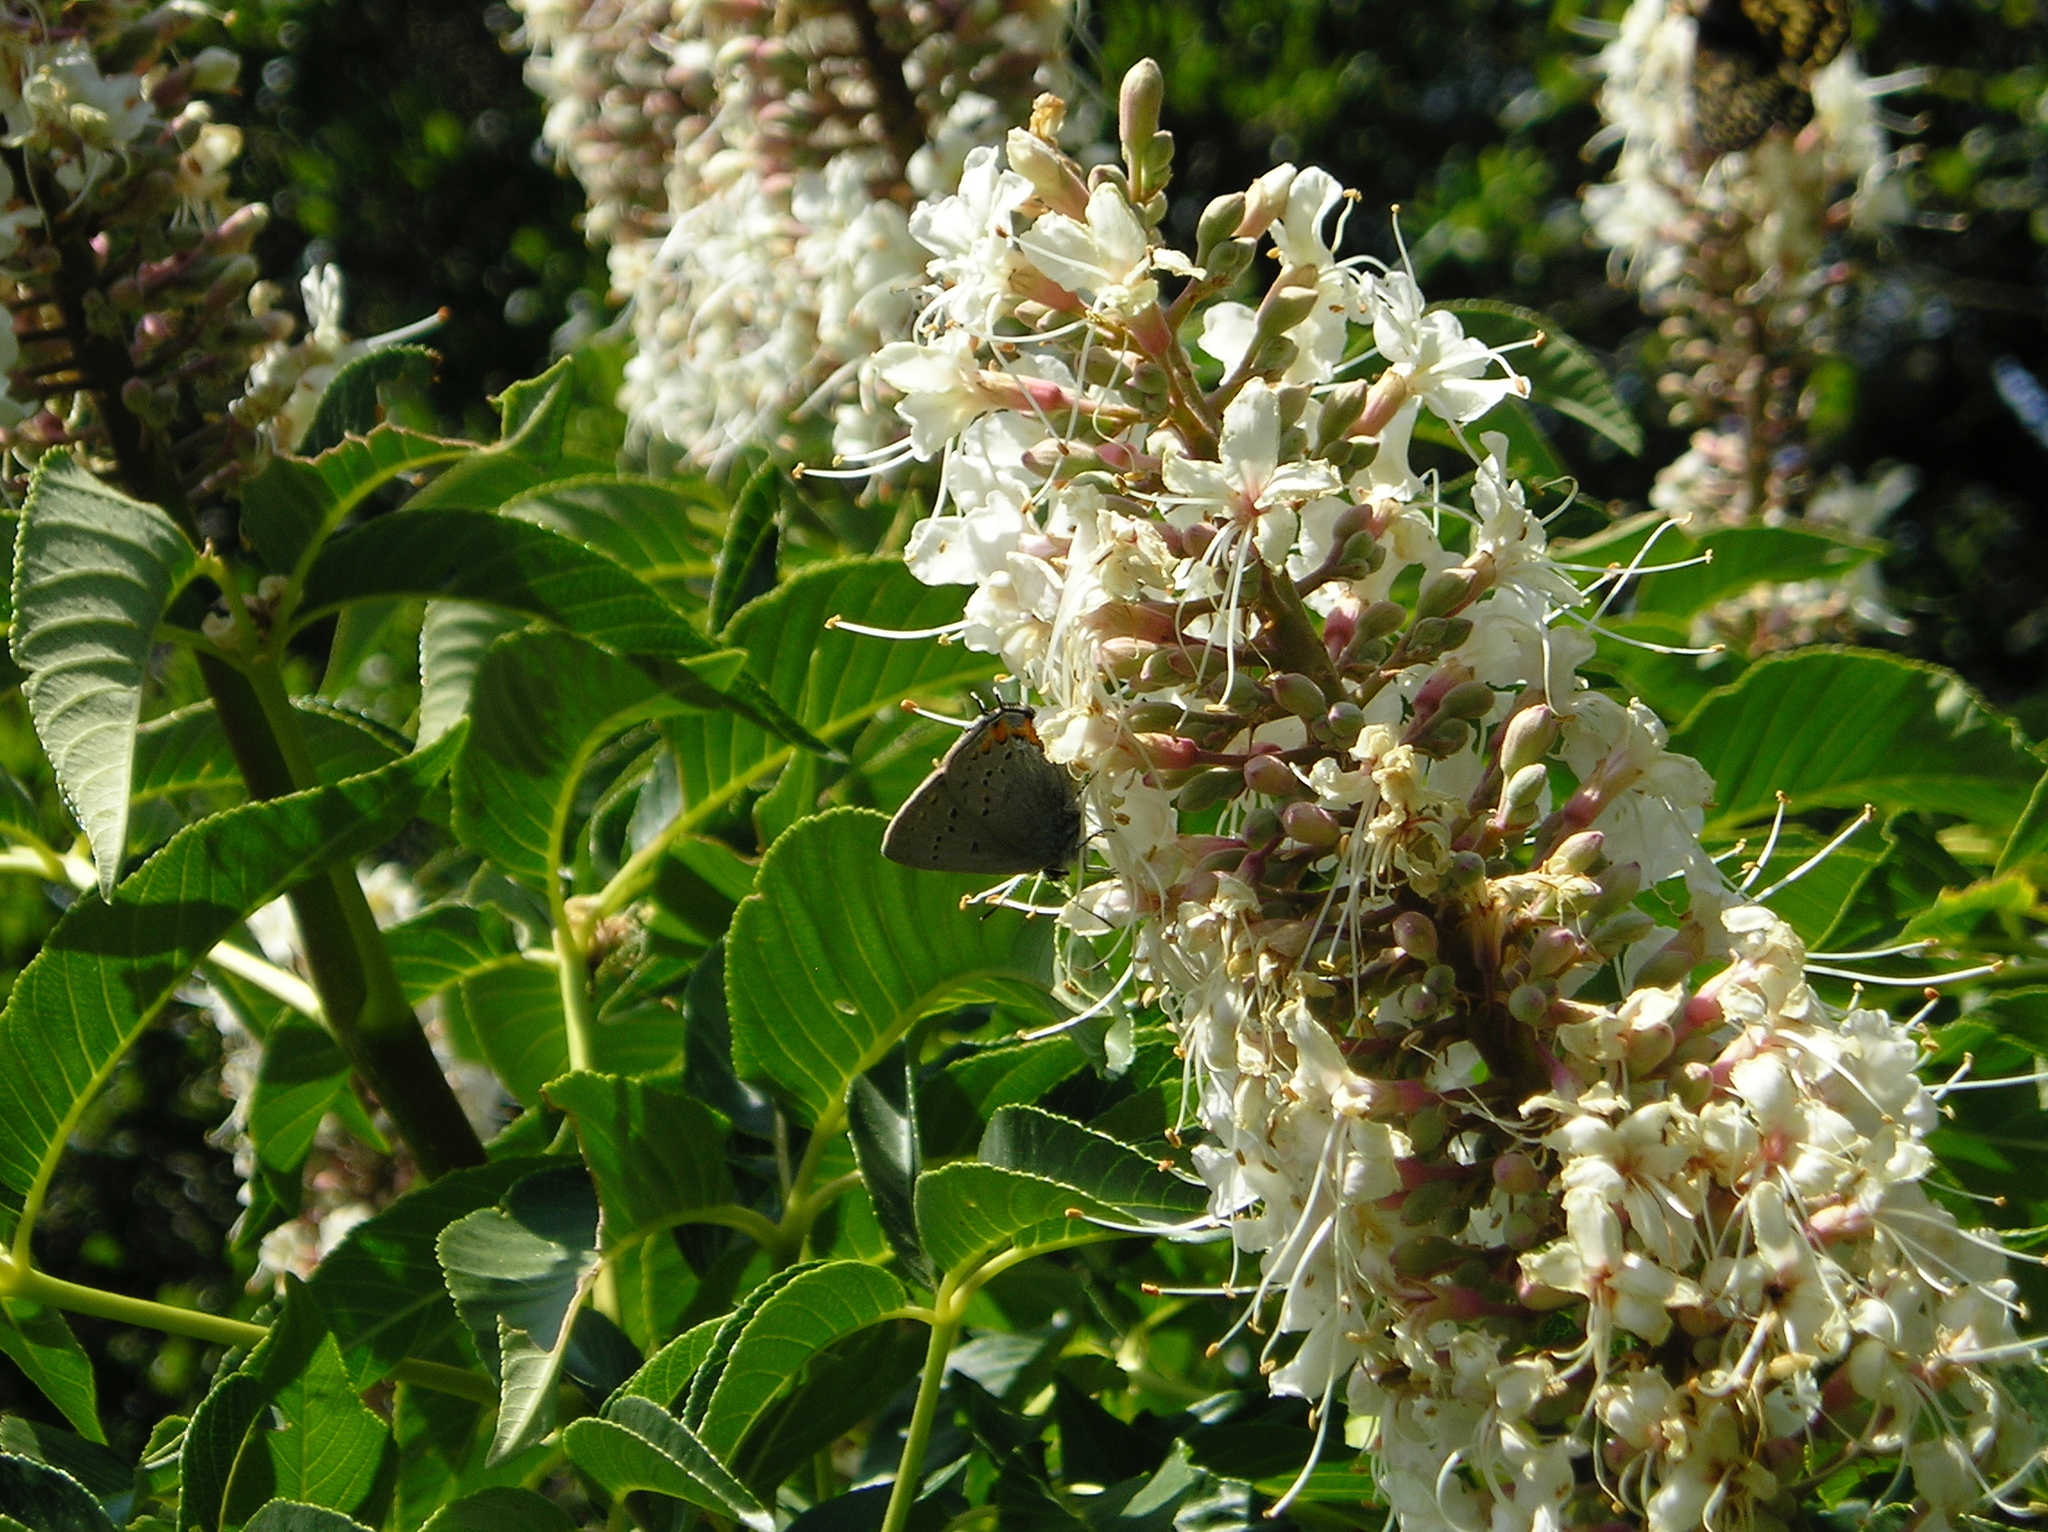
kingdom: Animalia
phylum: Arthropoda
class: Insecta
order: Lepidoptera
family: Lycaenidae
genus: Strymon
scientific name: Strymon acadica
